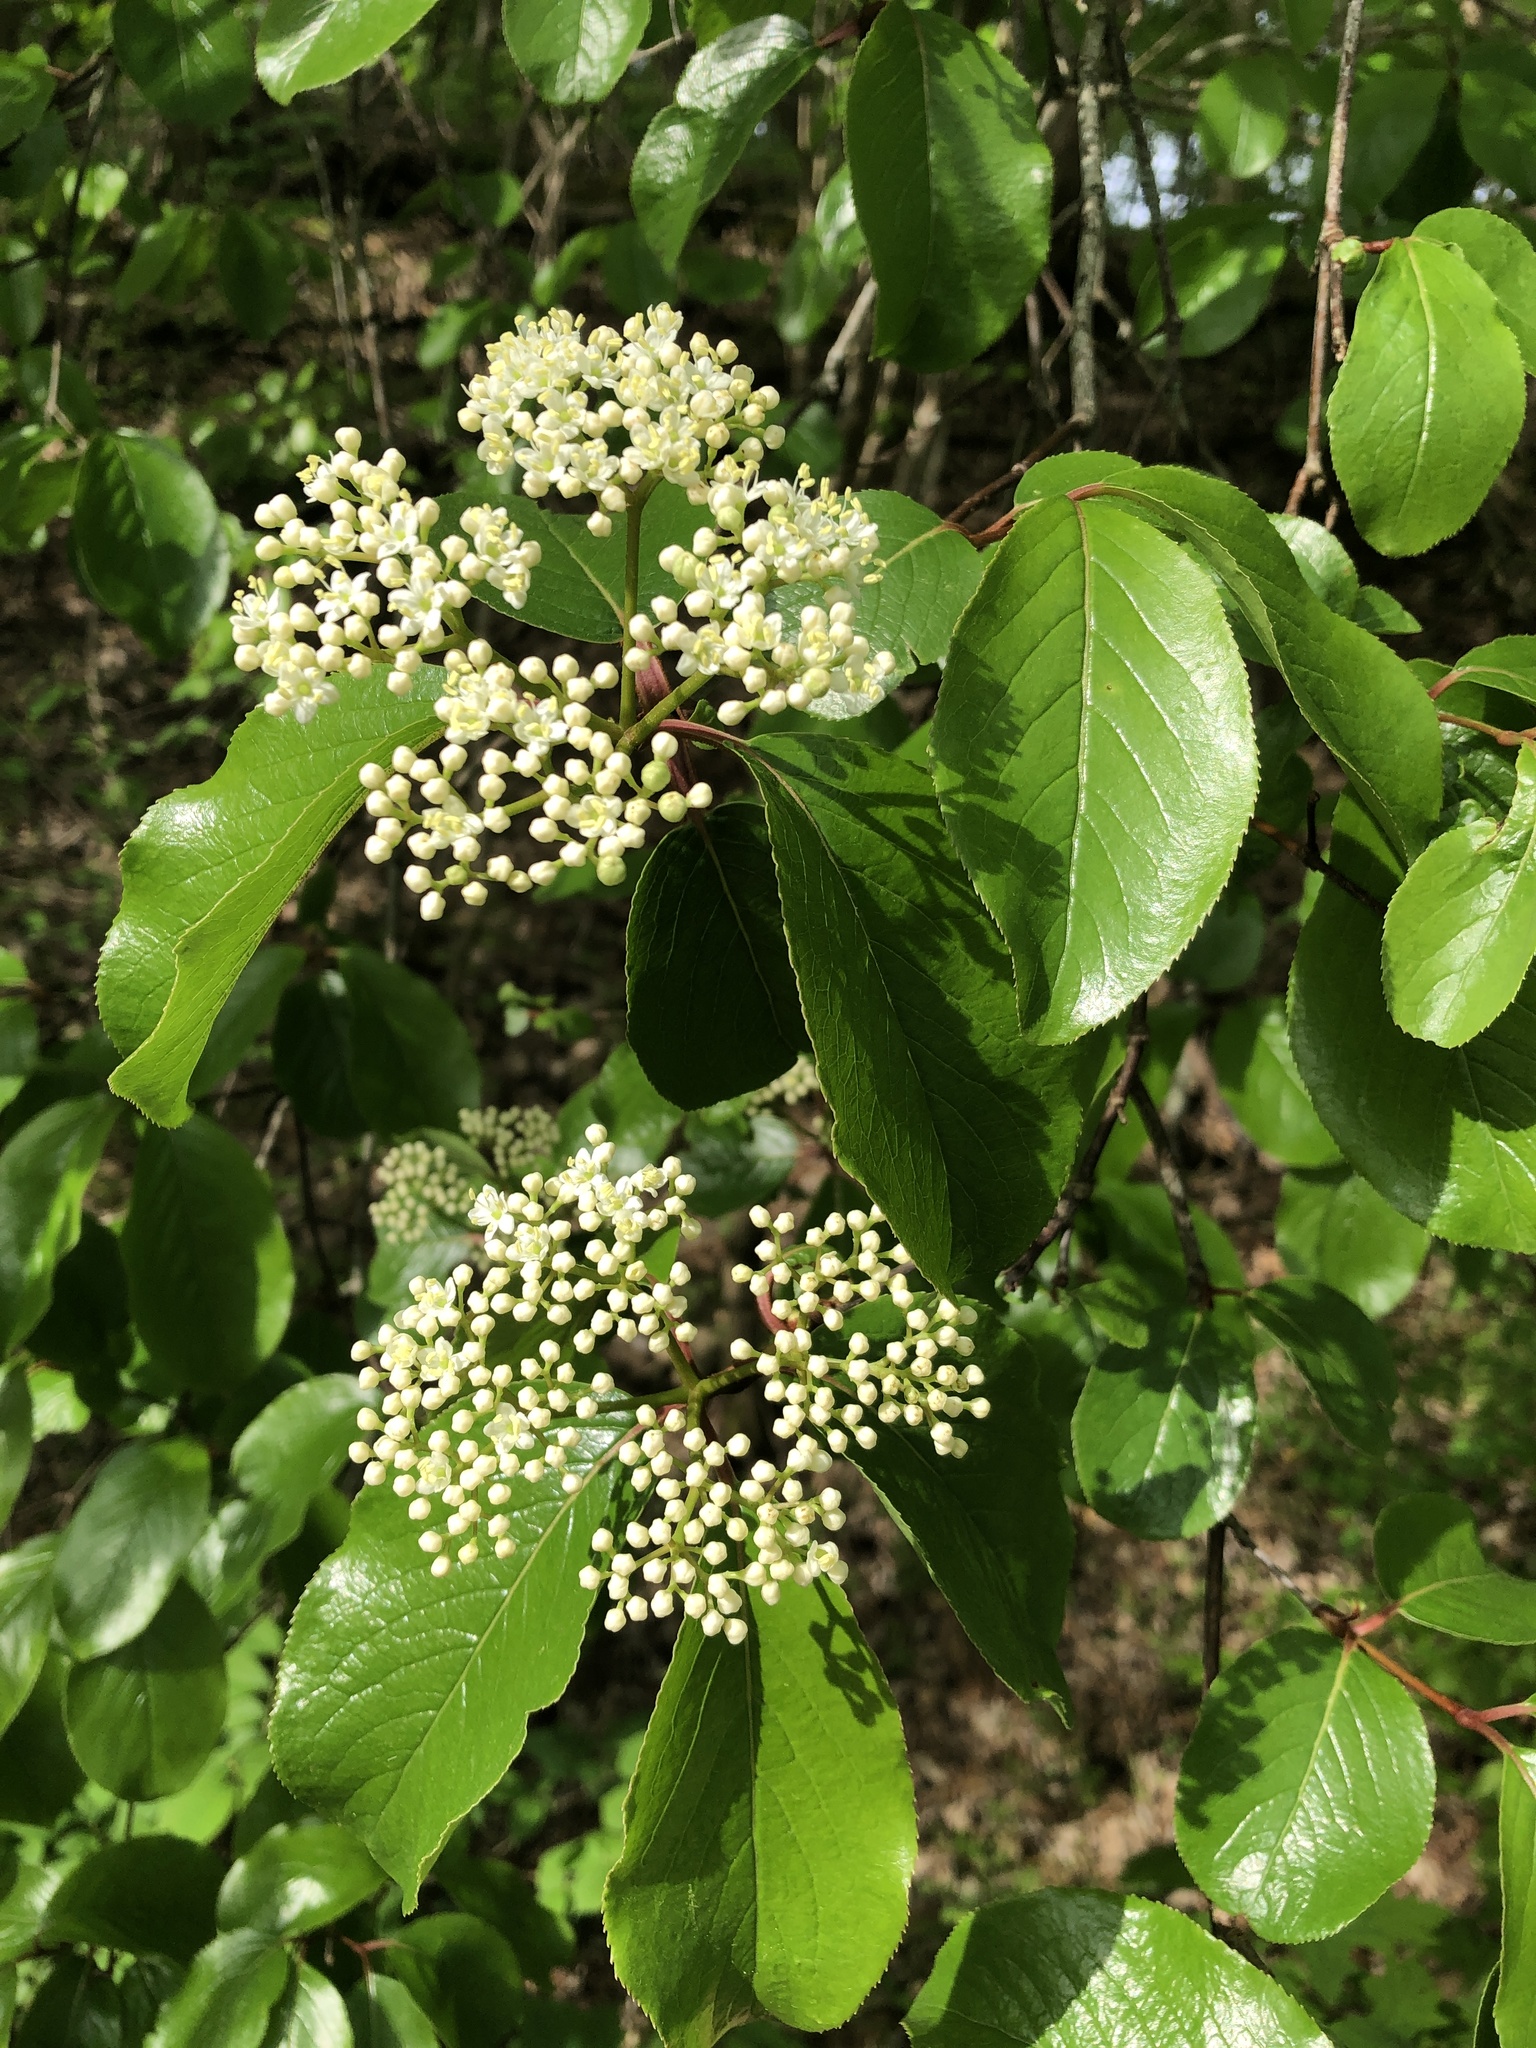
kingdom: Plantae
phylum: Tracheophyta
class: Magnoliopsida
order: Dipsacales
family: Viburnaceae
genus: Viburnum
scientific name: Viburnum rufidulum
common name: Blue haw
